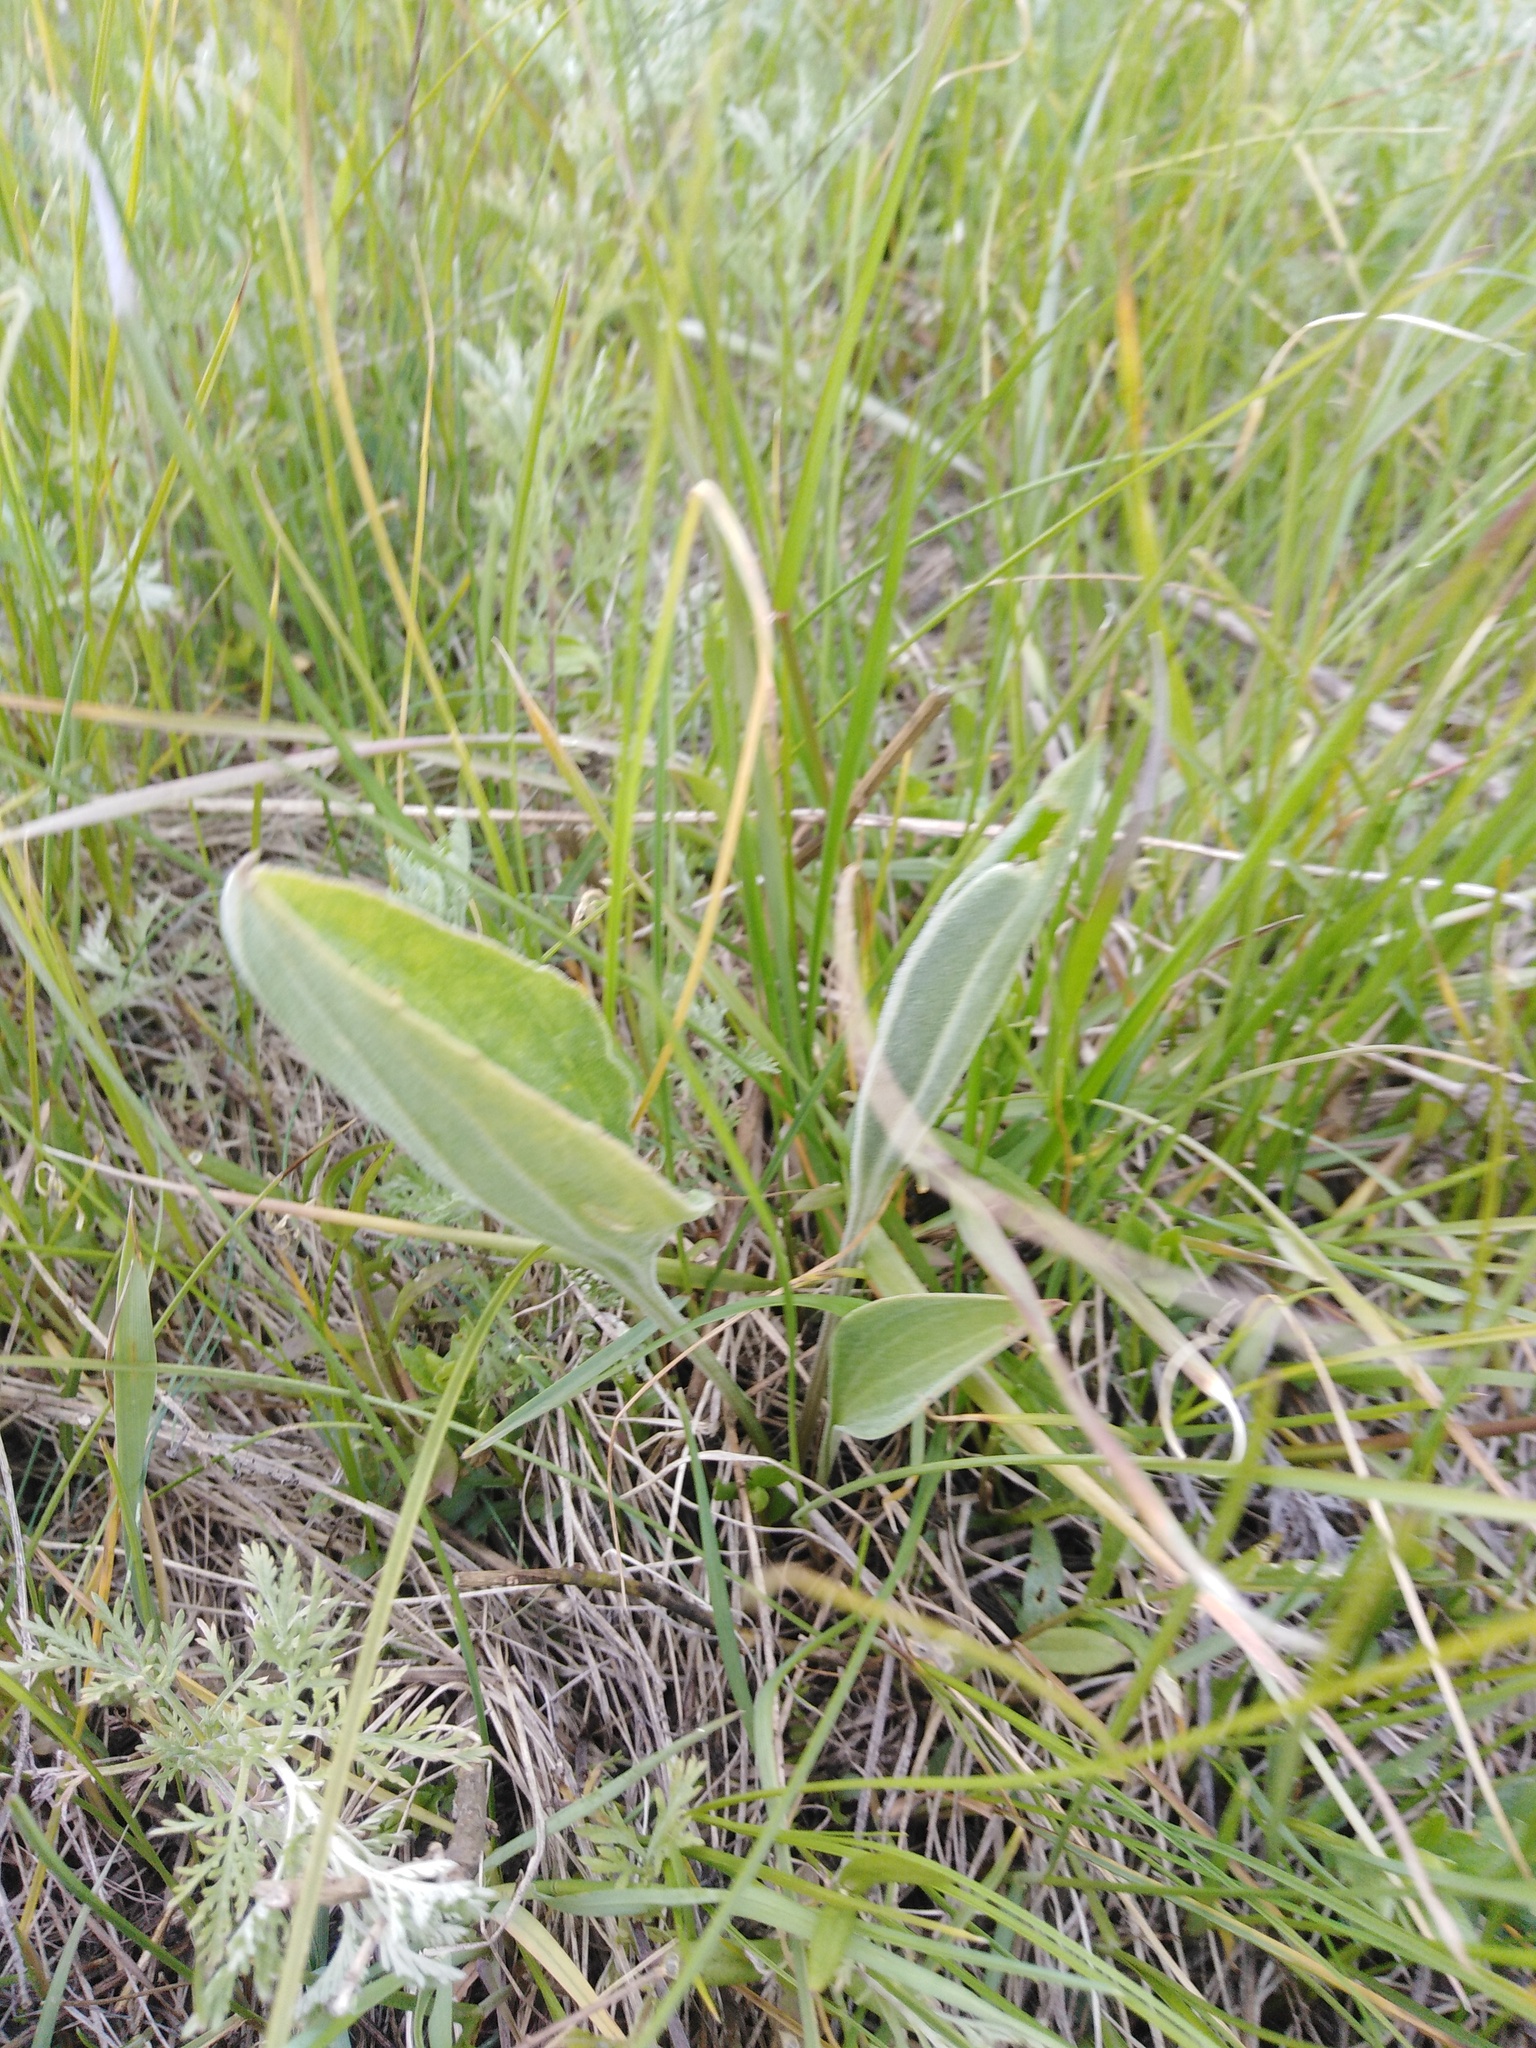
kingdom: Plantae
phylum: Tracheophyta
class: Magnoliopsida
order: Lamiales
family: Plantaginaceae
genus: Plantago
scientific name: Plantago maxima
